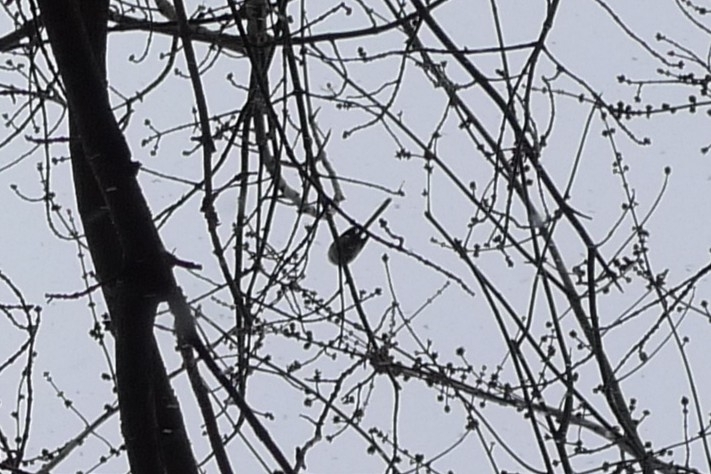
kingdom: Animalia
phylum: Chordata
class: Aves
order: Passeriformes
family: Aegithalidae
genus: Aegithalos
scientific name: Aegithalos caudatus
